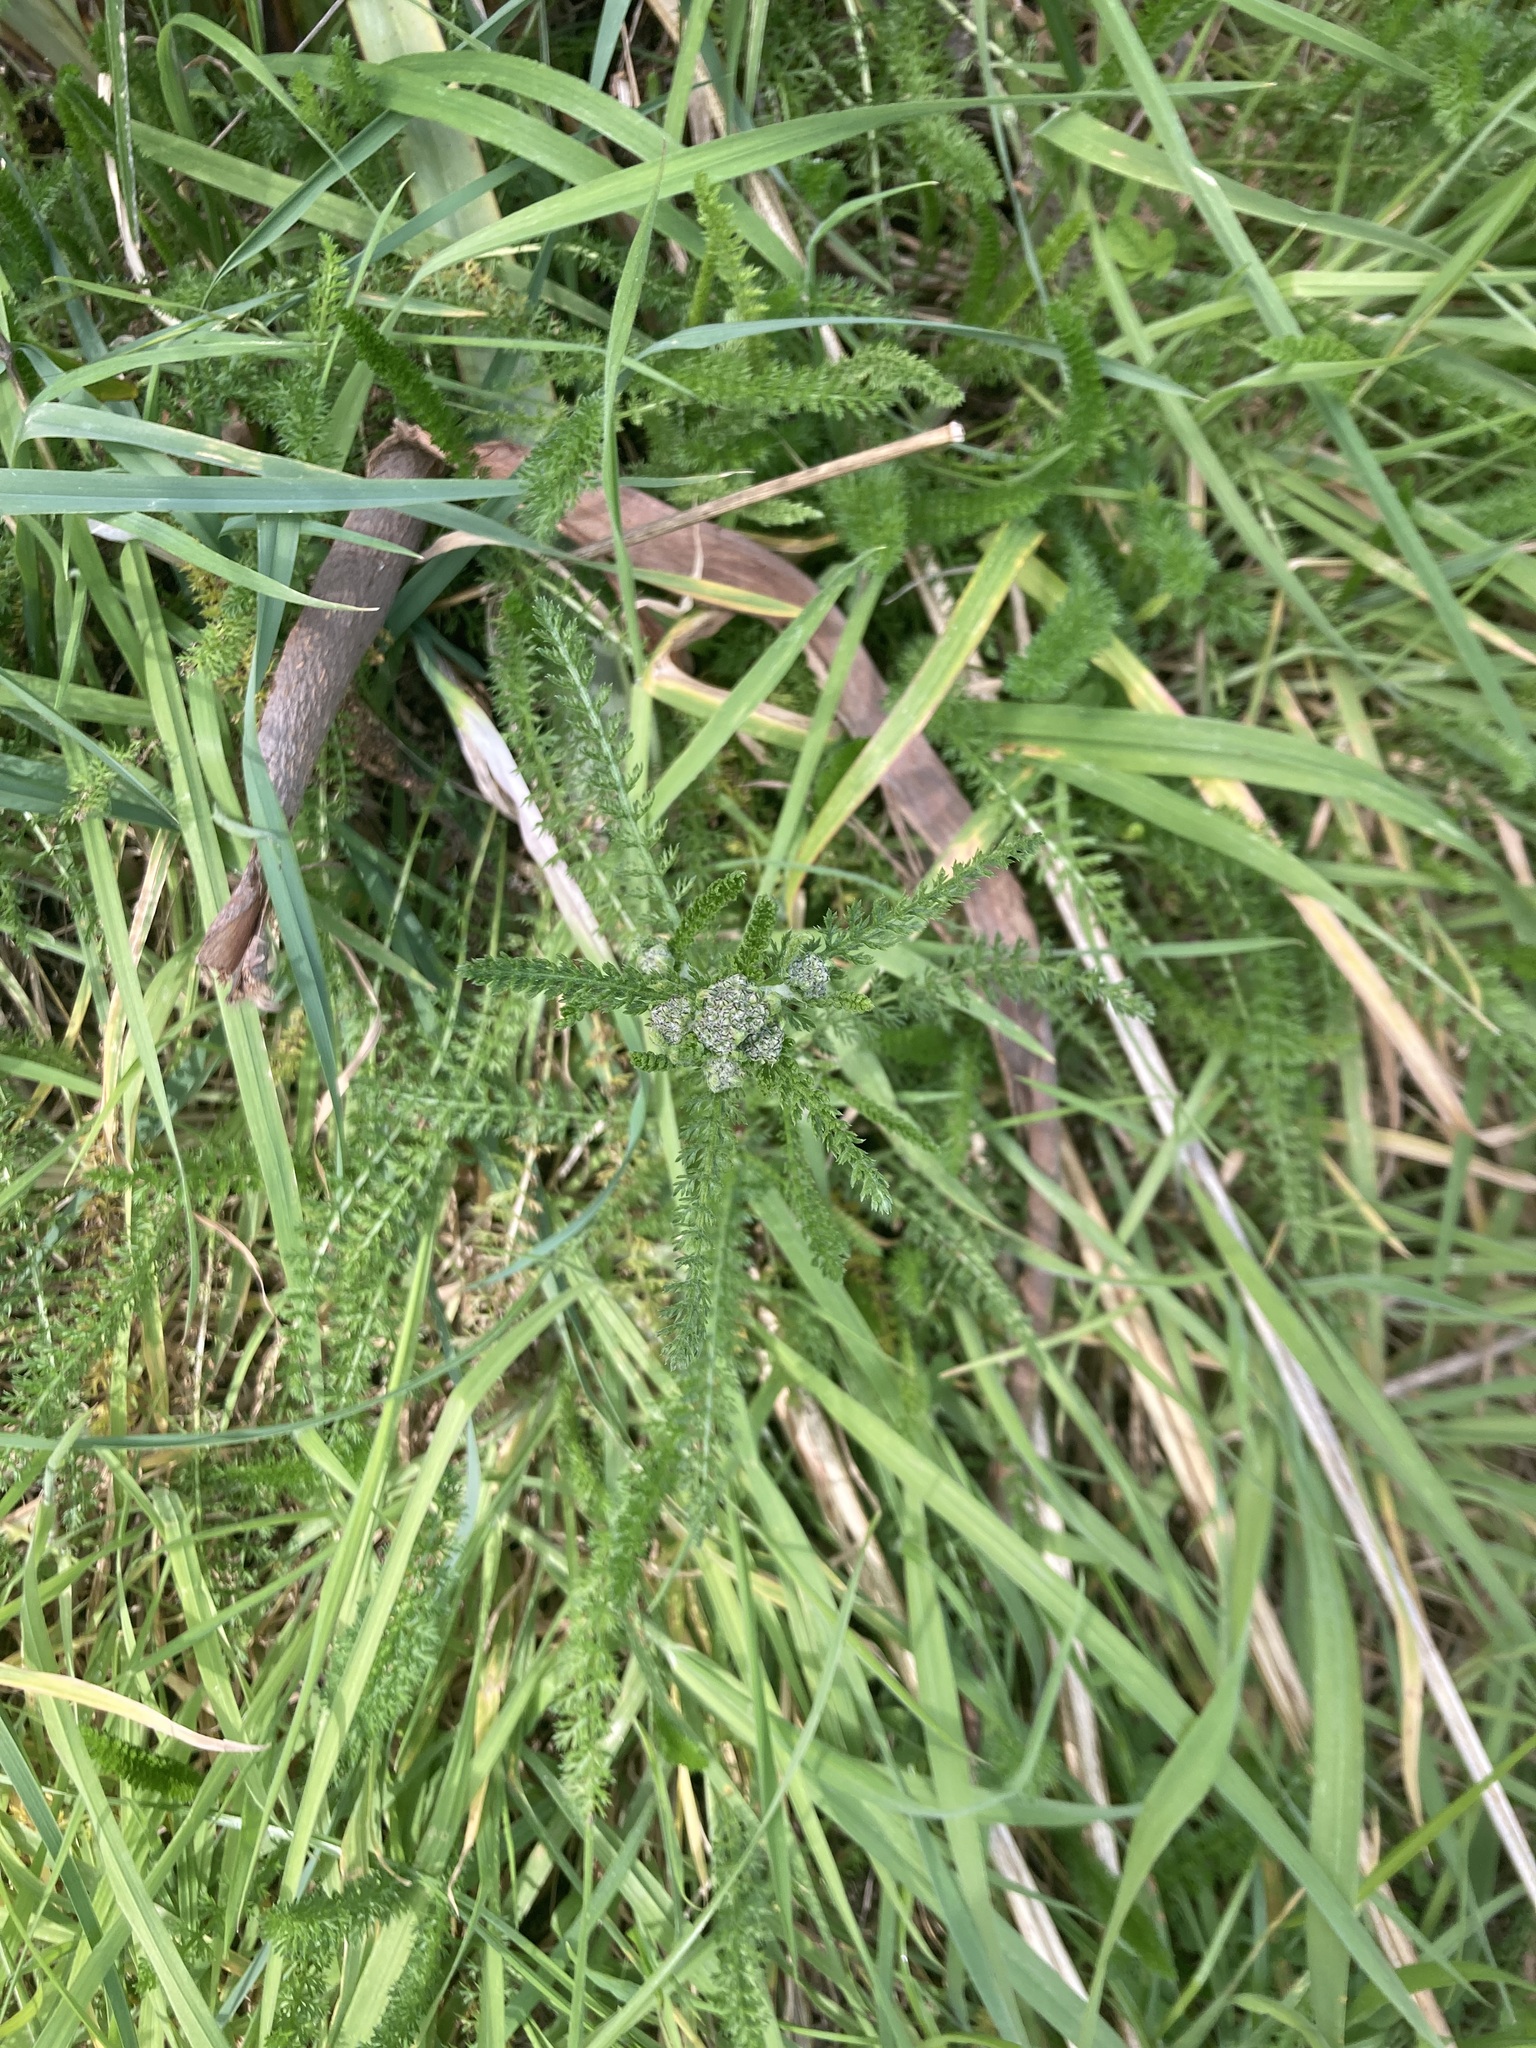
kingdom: Plantae
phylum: Tracheophyta
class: Magnoliopsida
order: Asterales
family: Asteraceae
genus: Achillea
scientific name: Achillea millefolium
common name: Yarrow
